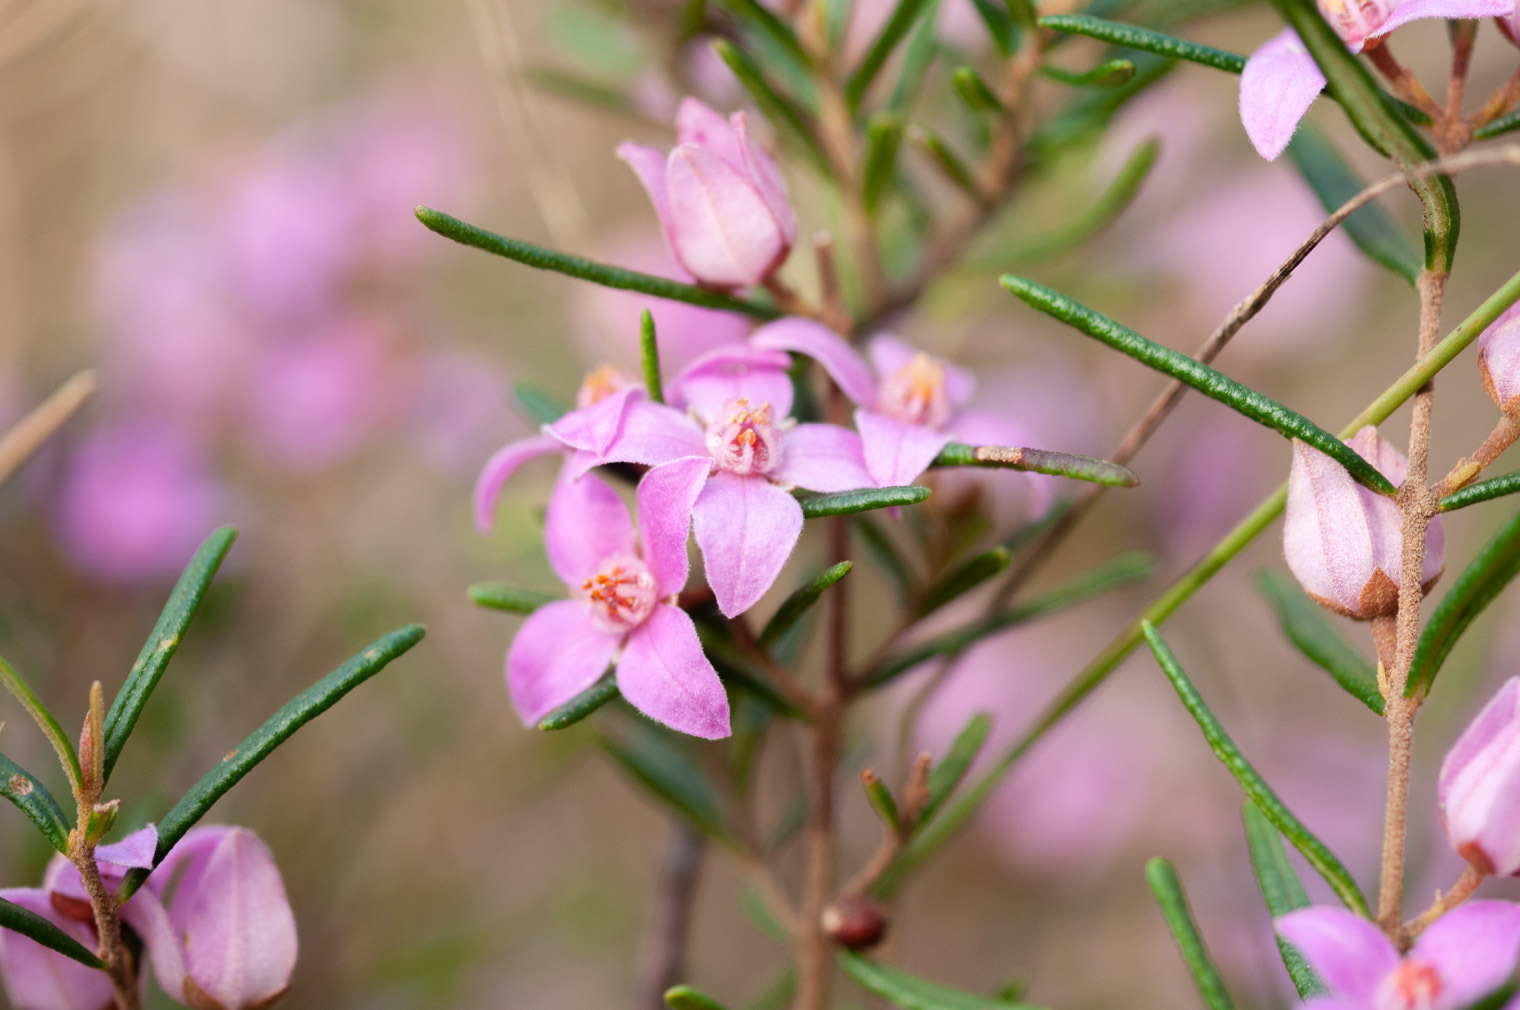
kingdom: Plantae
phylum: Tracheophyta
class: Magnoliopsida
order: Sapindales
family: Rutaceae
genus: Boronia
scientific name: Boronia rosmarinifolia
